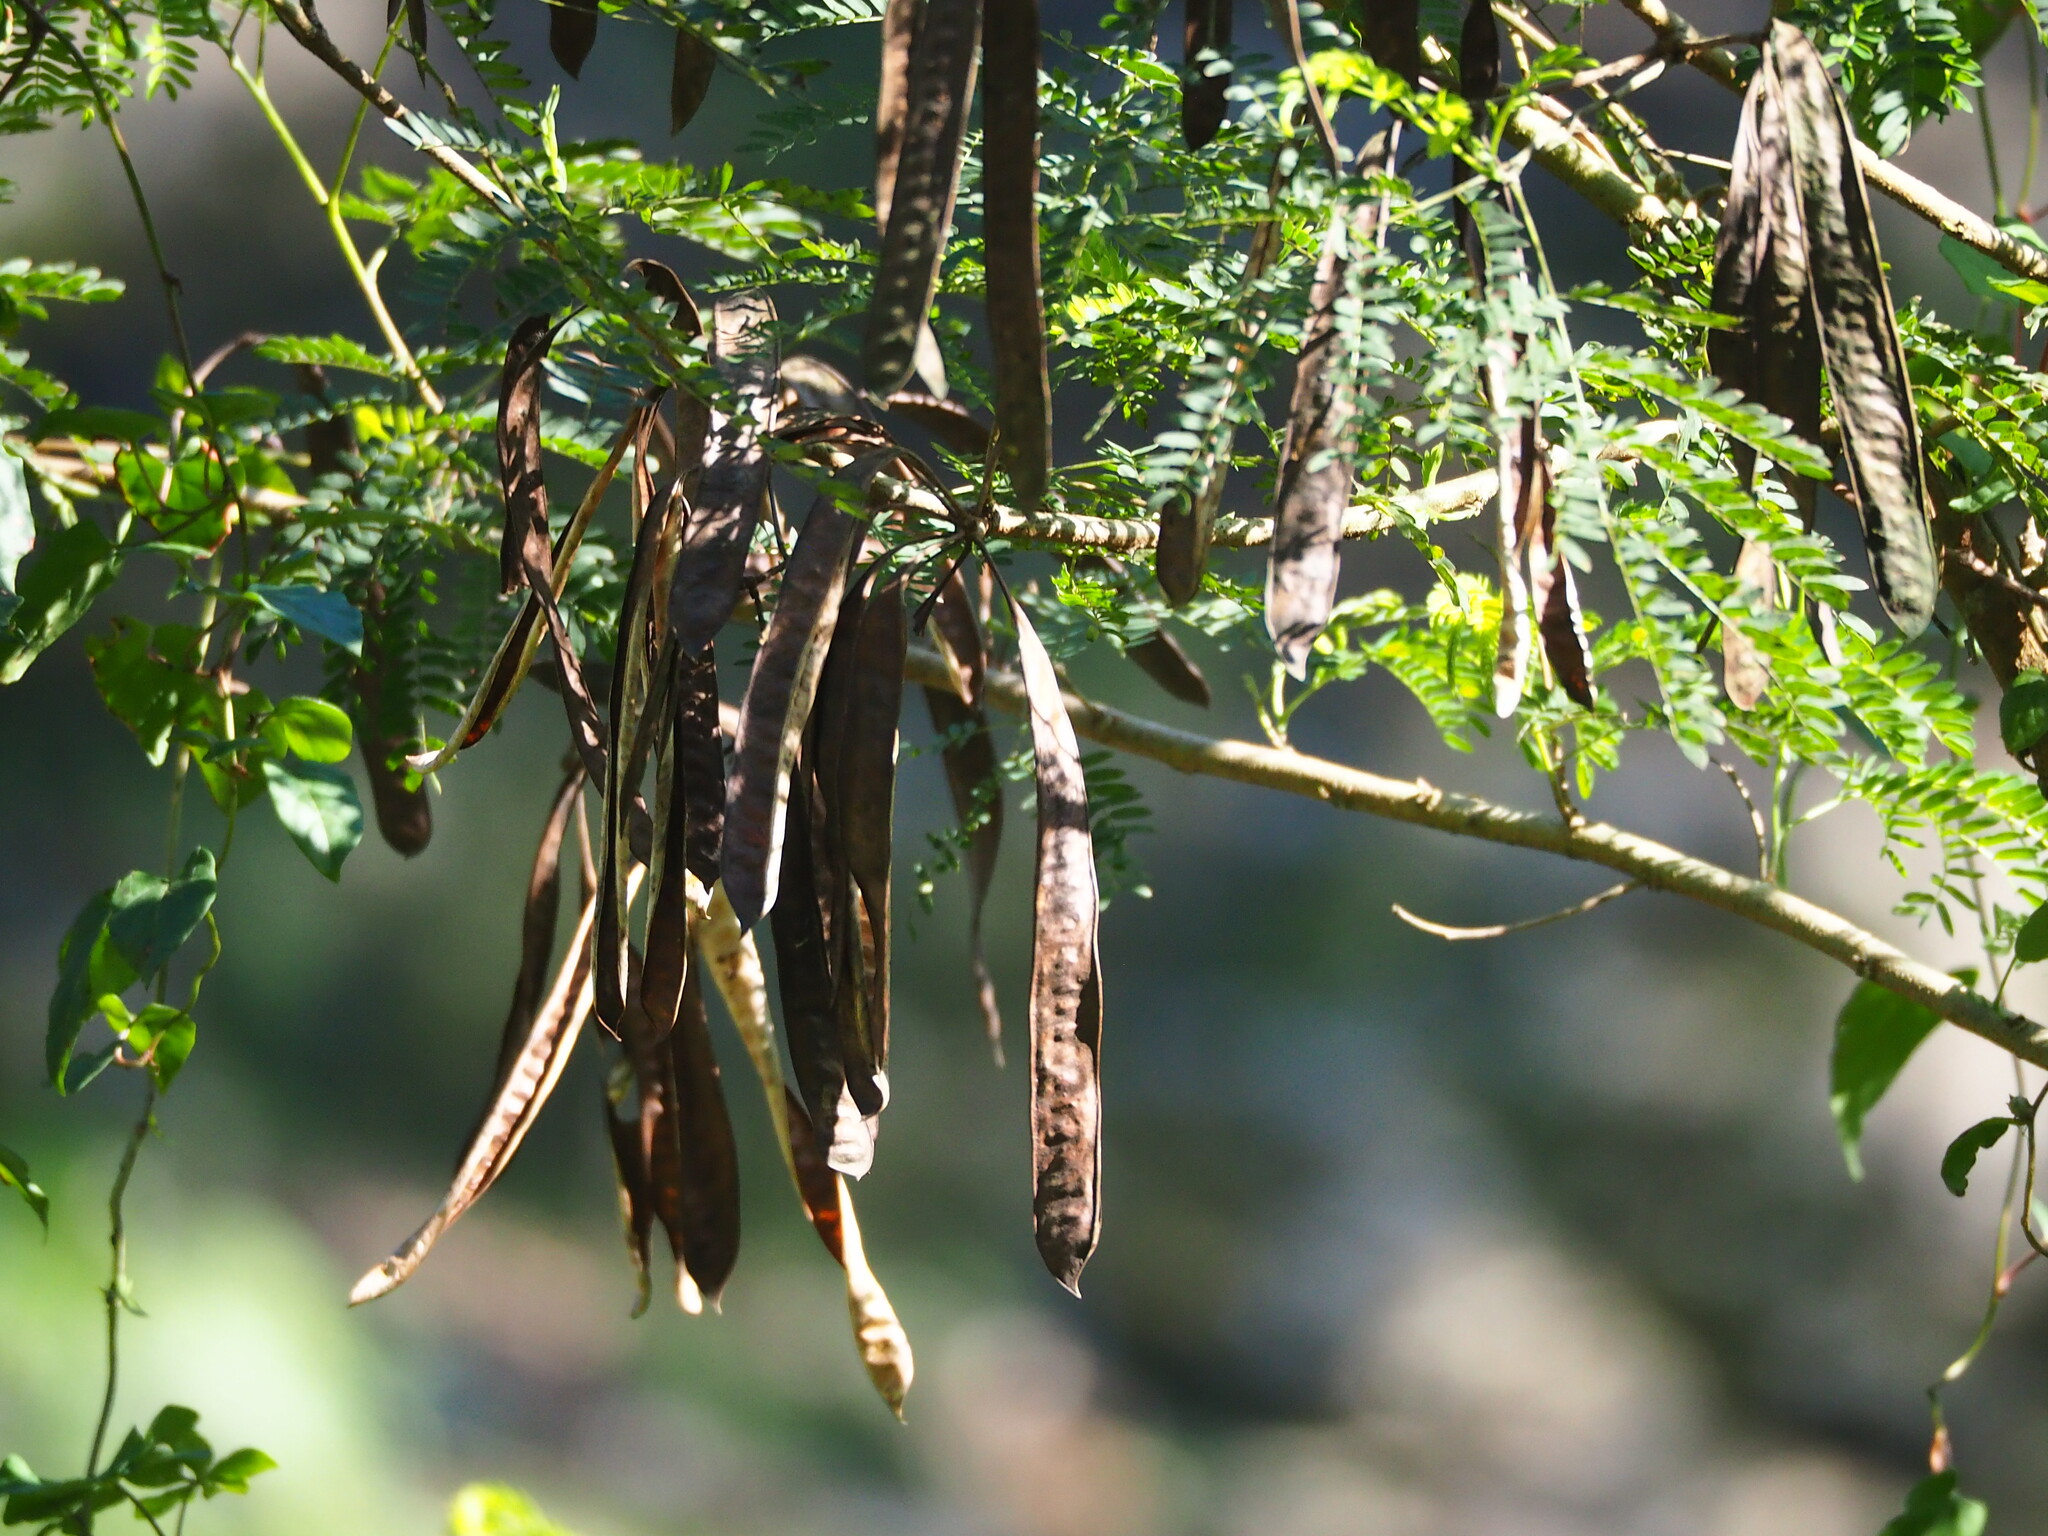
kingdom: Plantae
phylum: Tracheophyta
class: Magnoliopsida
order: Fabales
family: Fabaceae
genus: Leucaena
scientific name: Leucaena leucocephala
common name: White leadtree
